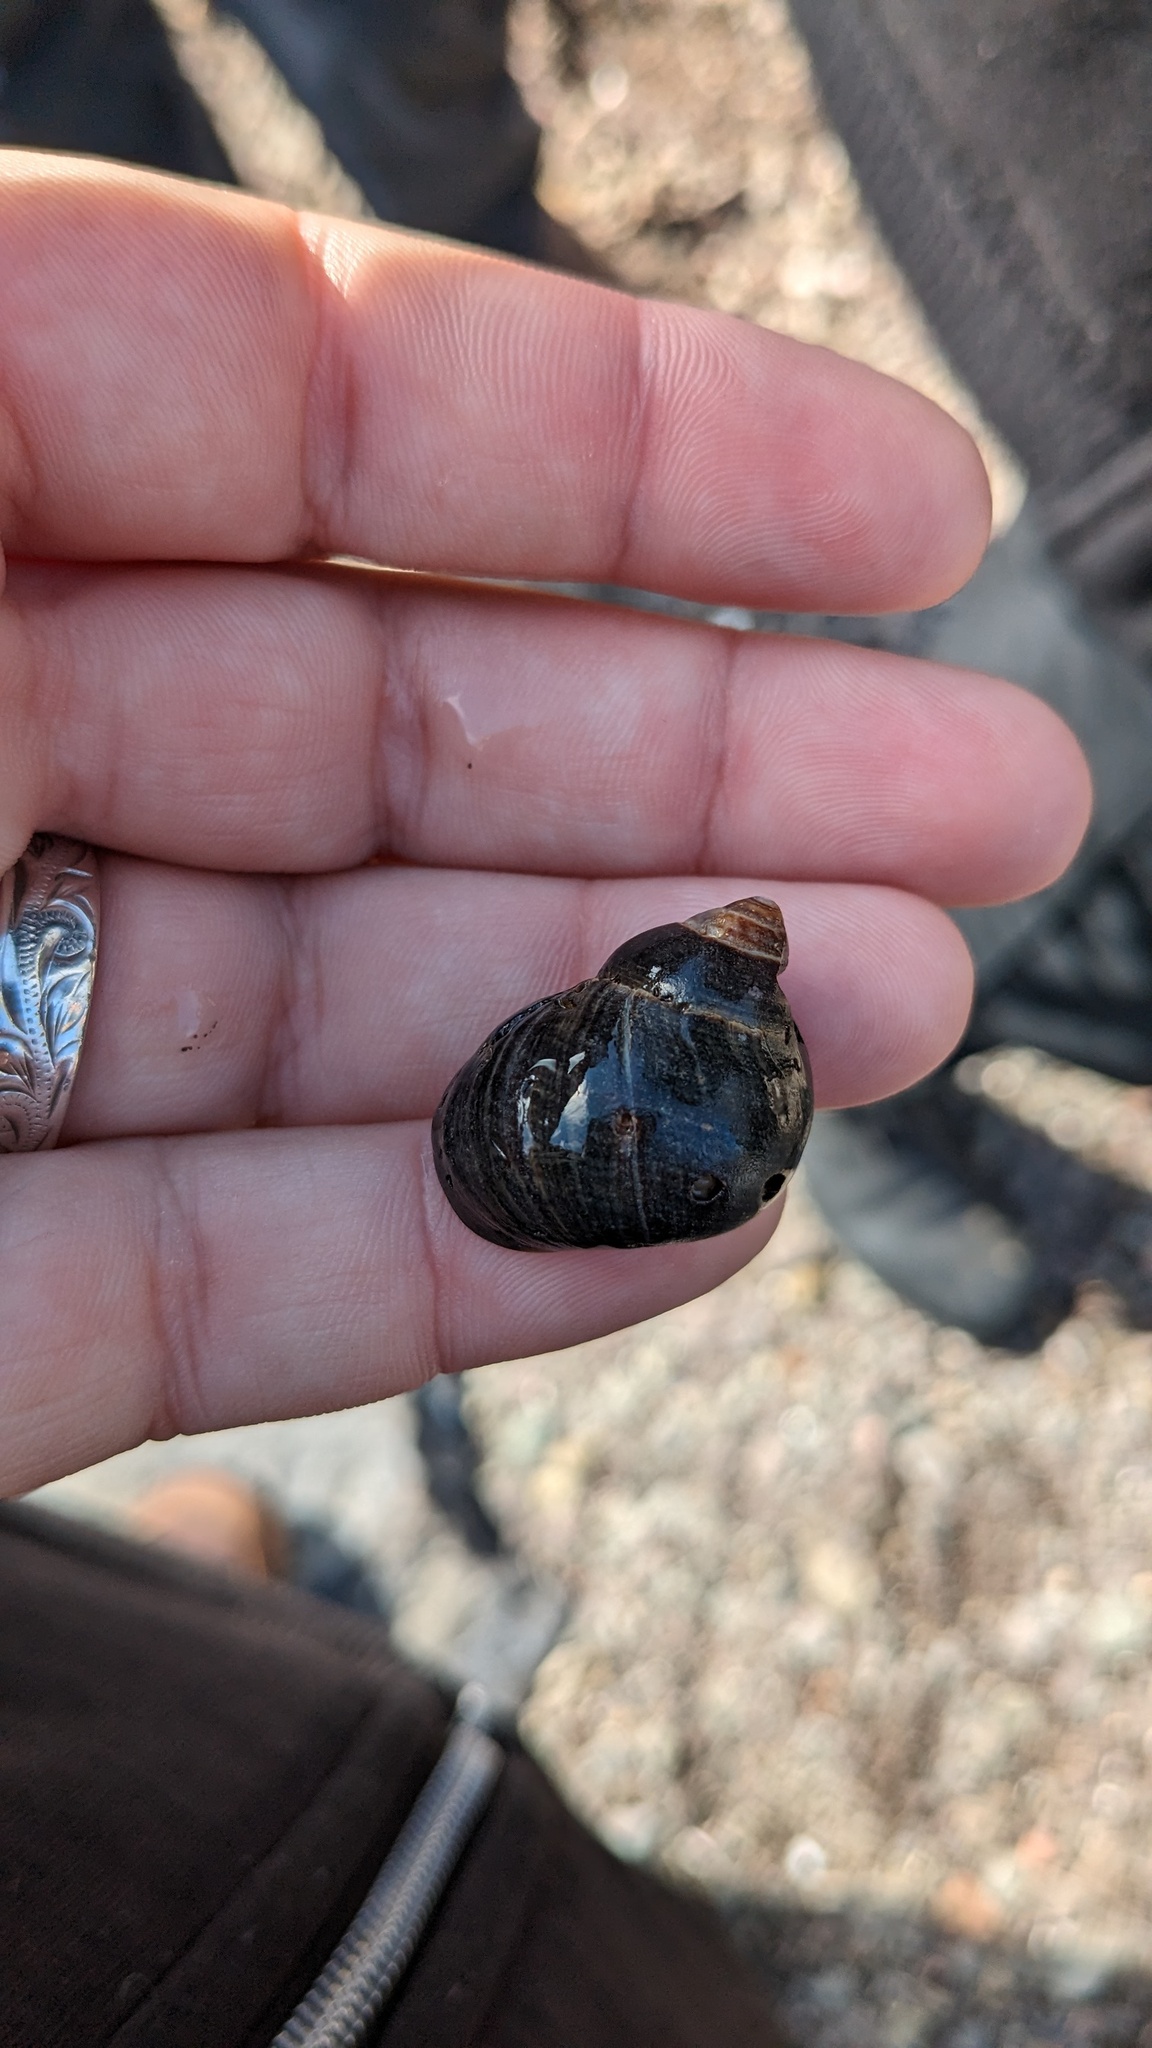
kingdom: Animalia
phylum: Mollusca
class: Gastropoda
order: Littorinimorpha
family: Littorinidae
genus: Littorina
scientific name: Littorina littorea
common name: Common periwinkle
